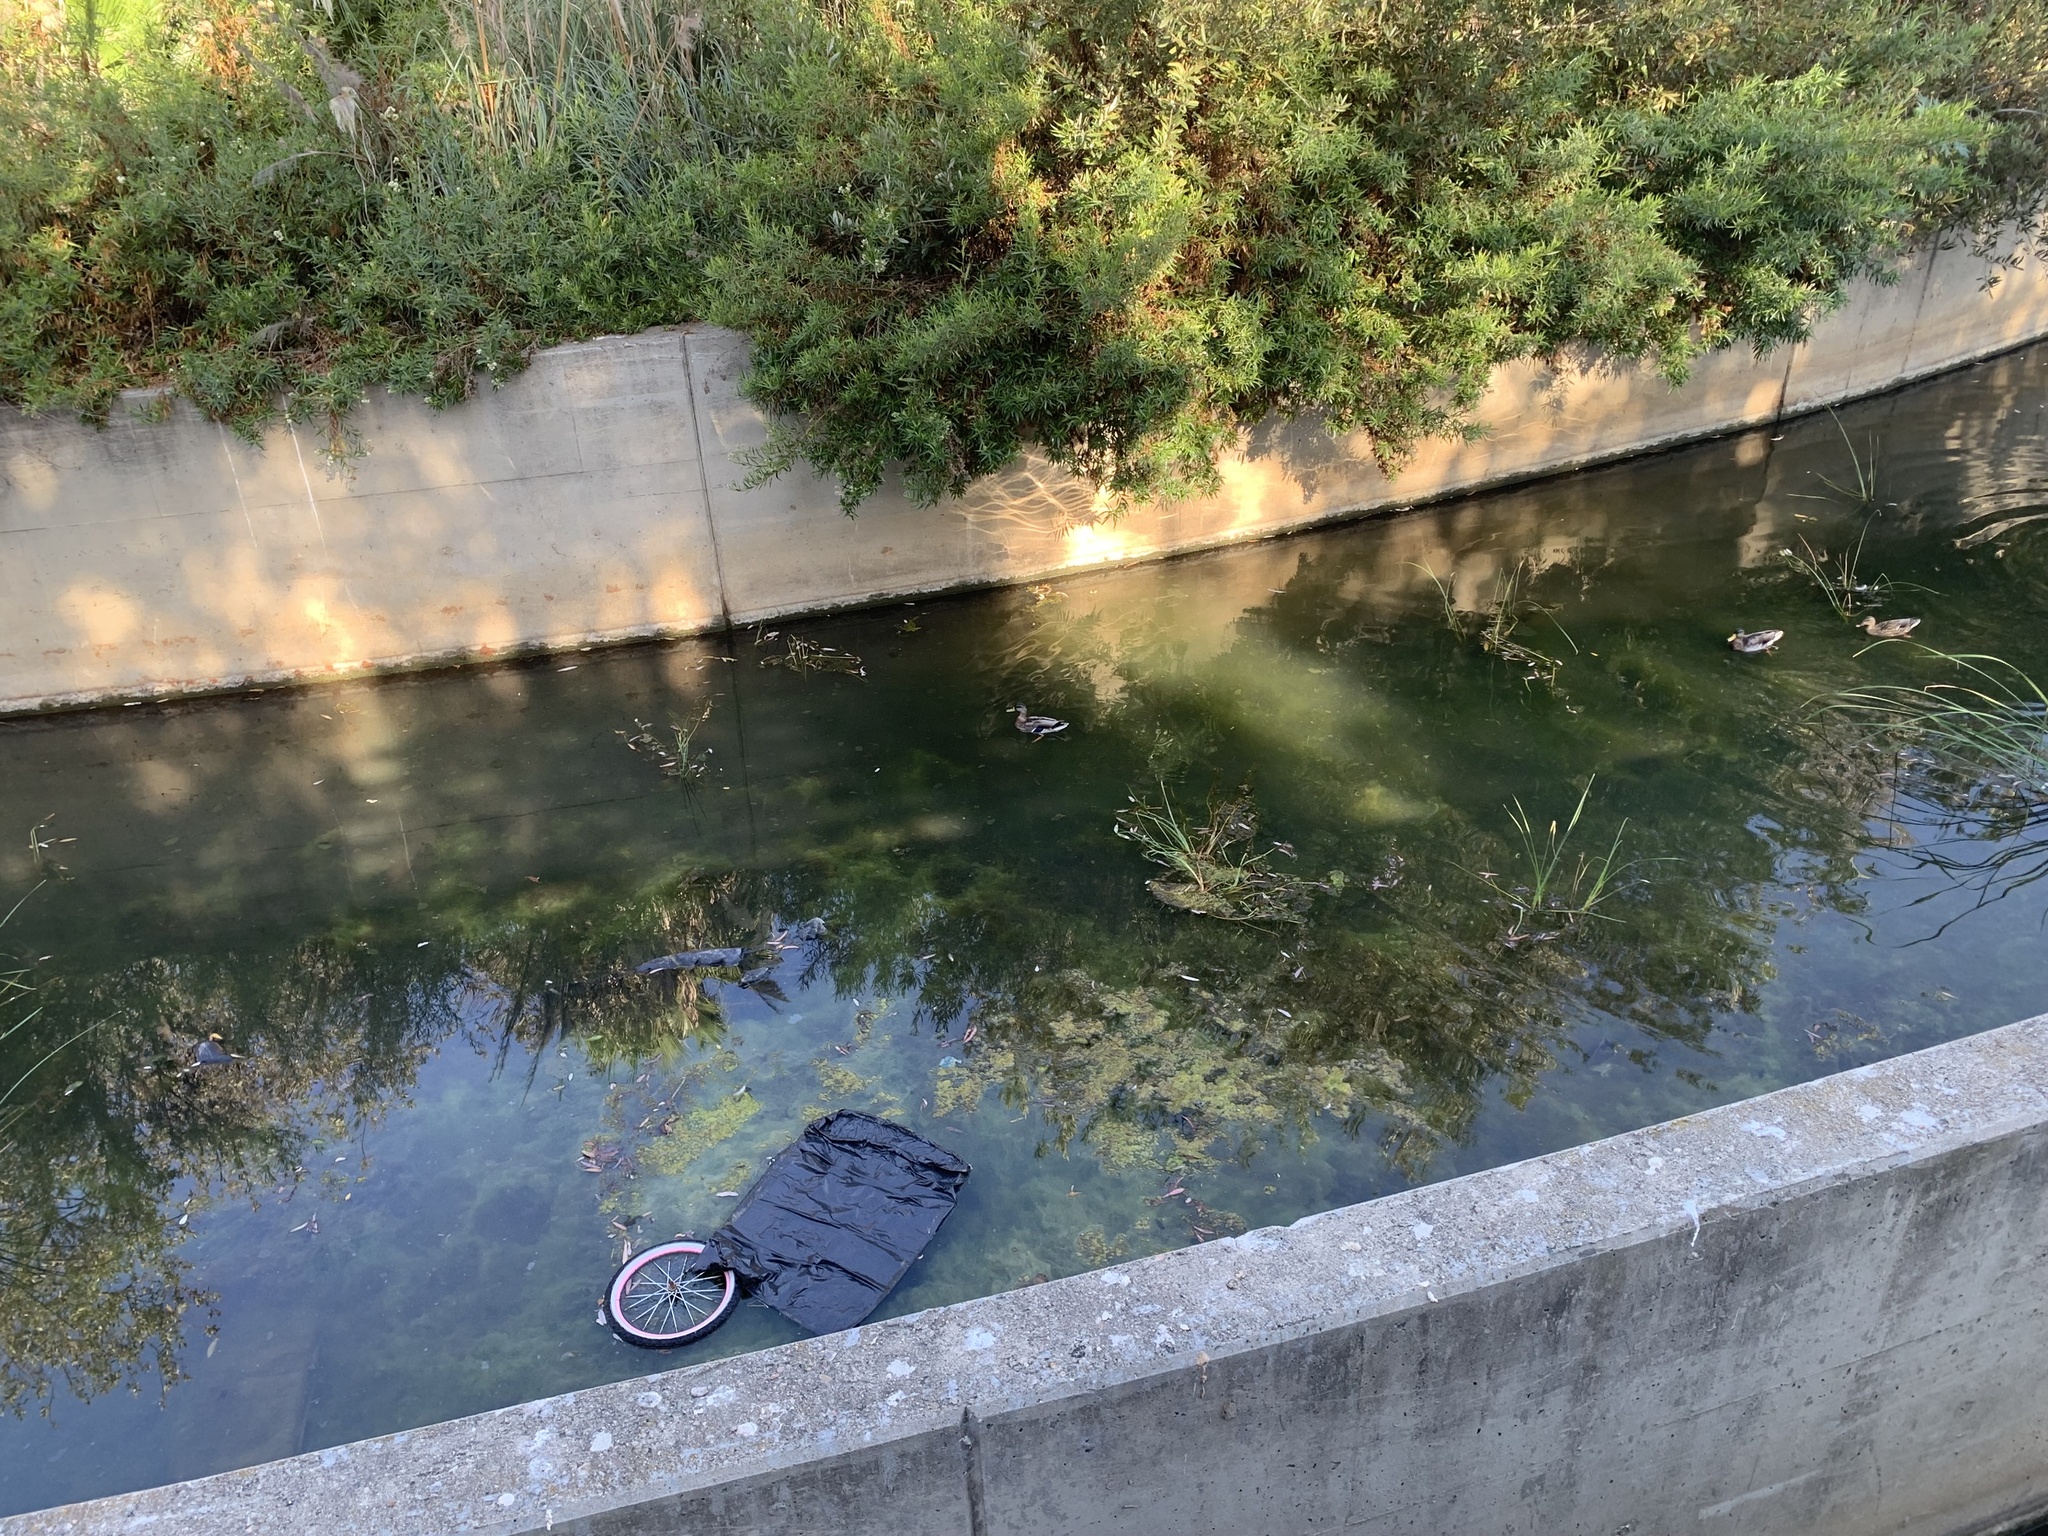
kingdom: Animalia
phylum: Chordata
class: Aves
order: Anseriformes
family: Anatidae
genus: Anas
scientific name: Anas platyrhynchos
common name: Mallard
